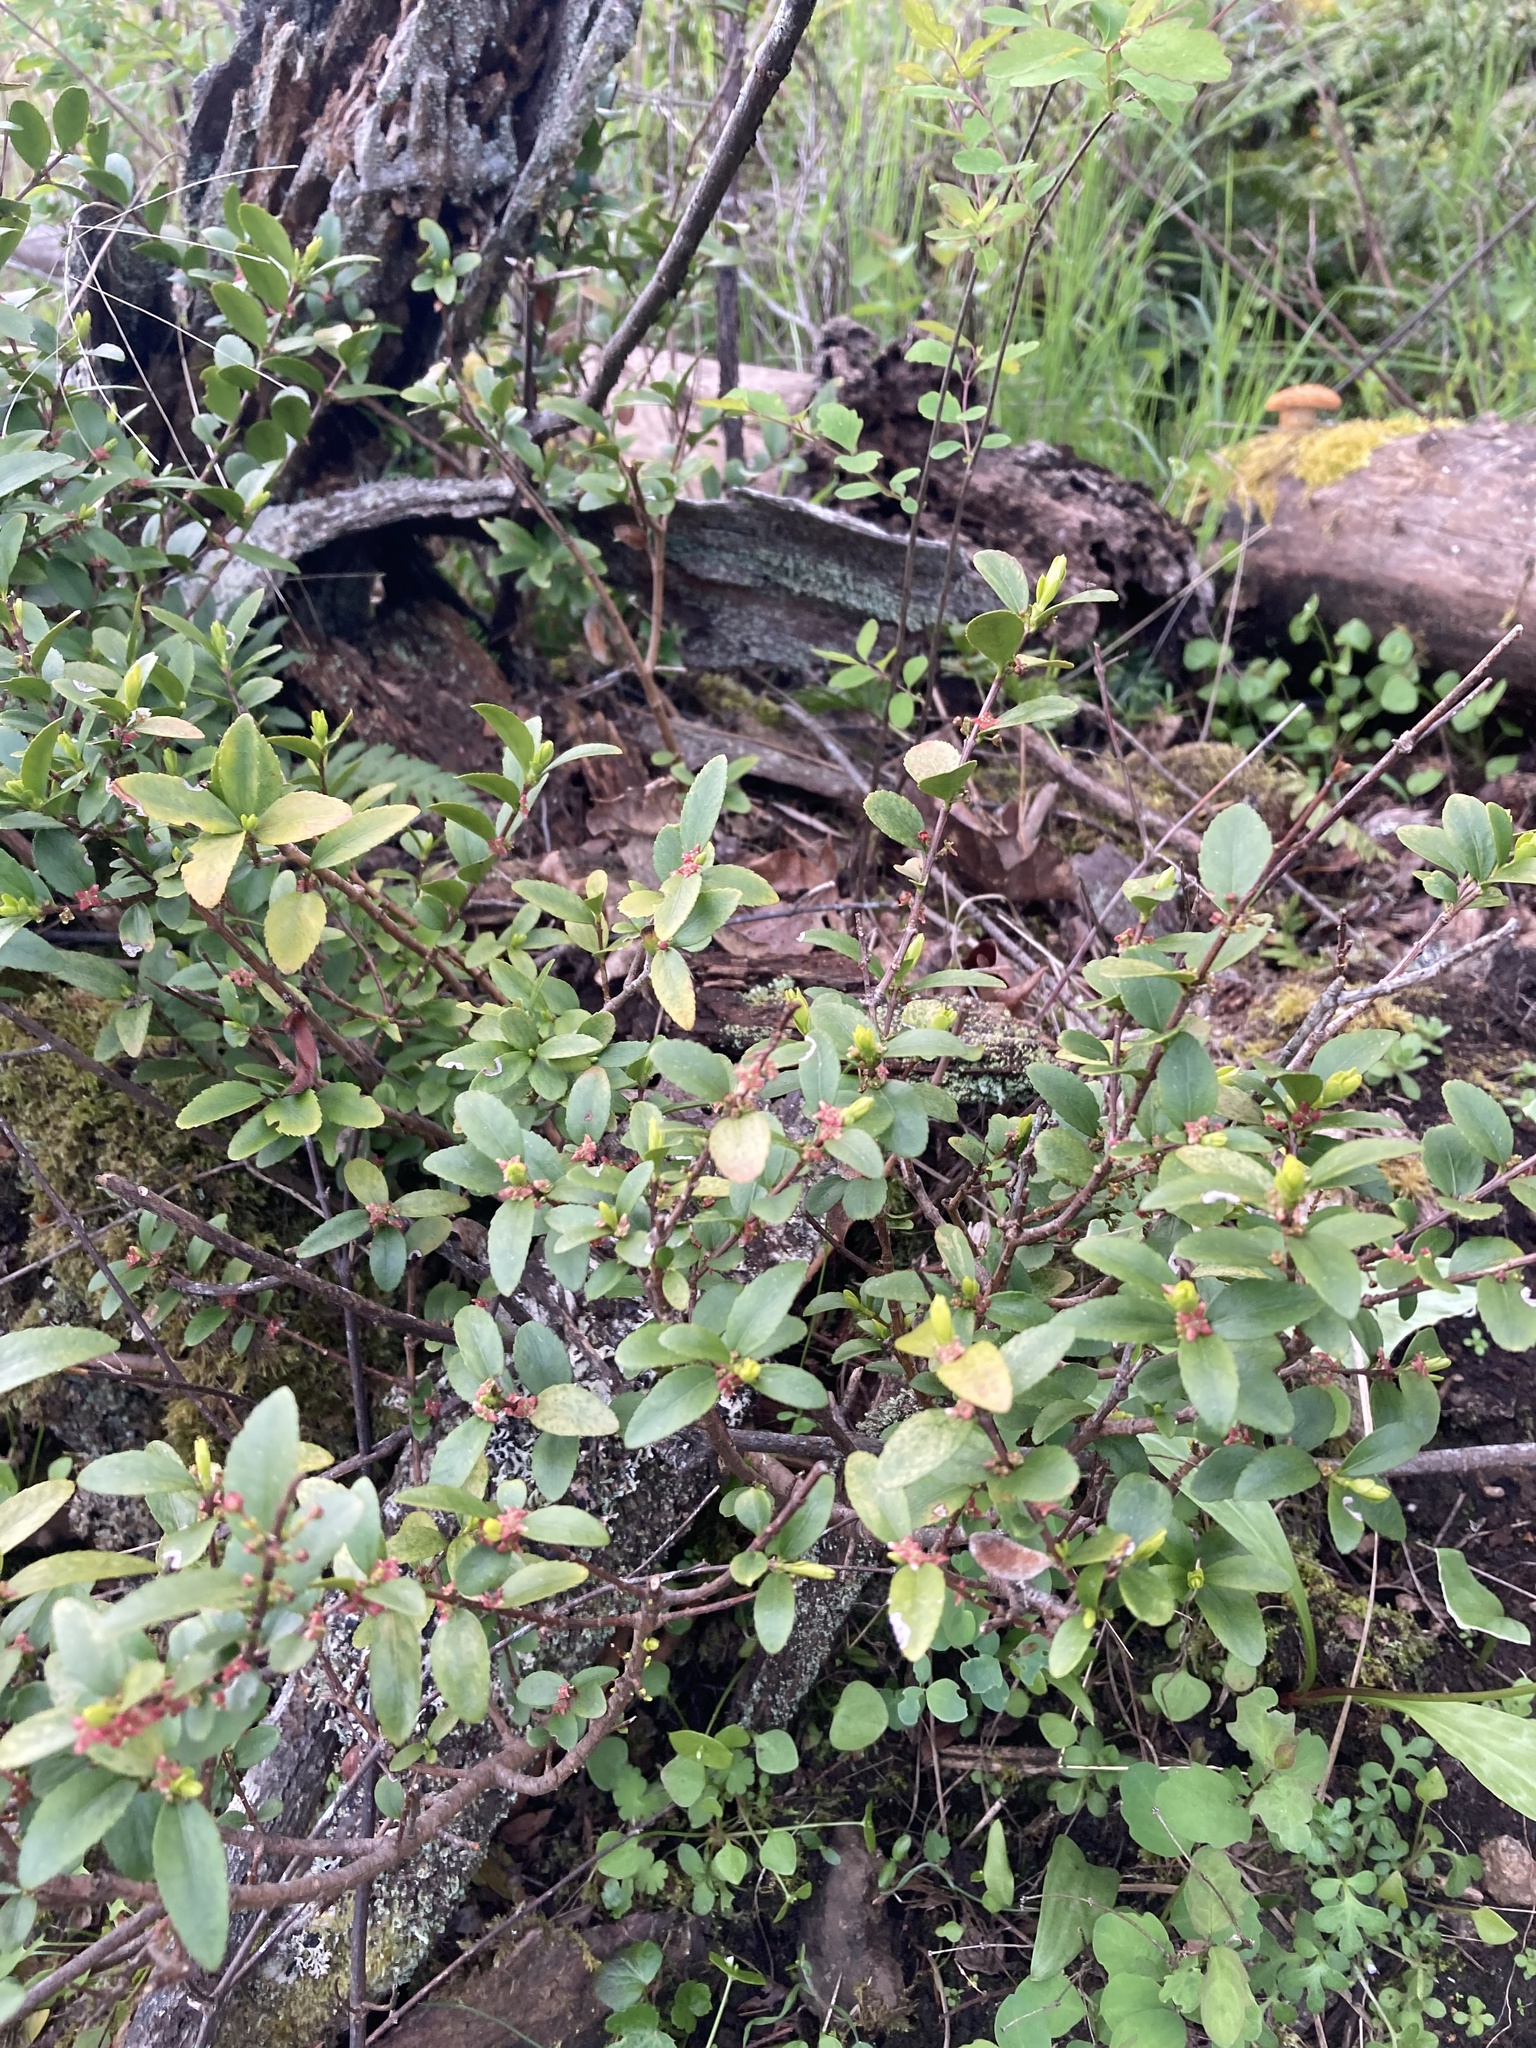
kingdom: Plantae
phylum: Tracheophyta
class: Magnoliopsida
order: Celastrales
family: Celastraceae
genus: Paxistima
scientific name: Paxistima myrsinites
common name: Mountain-lover
